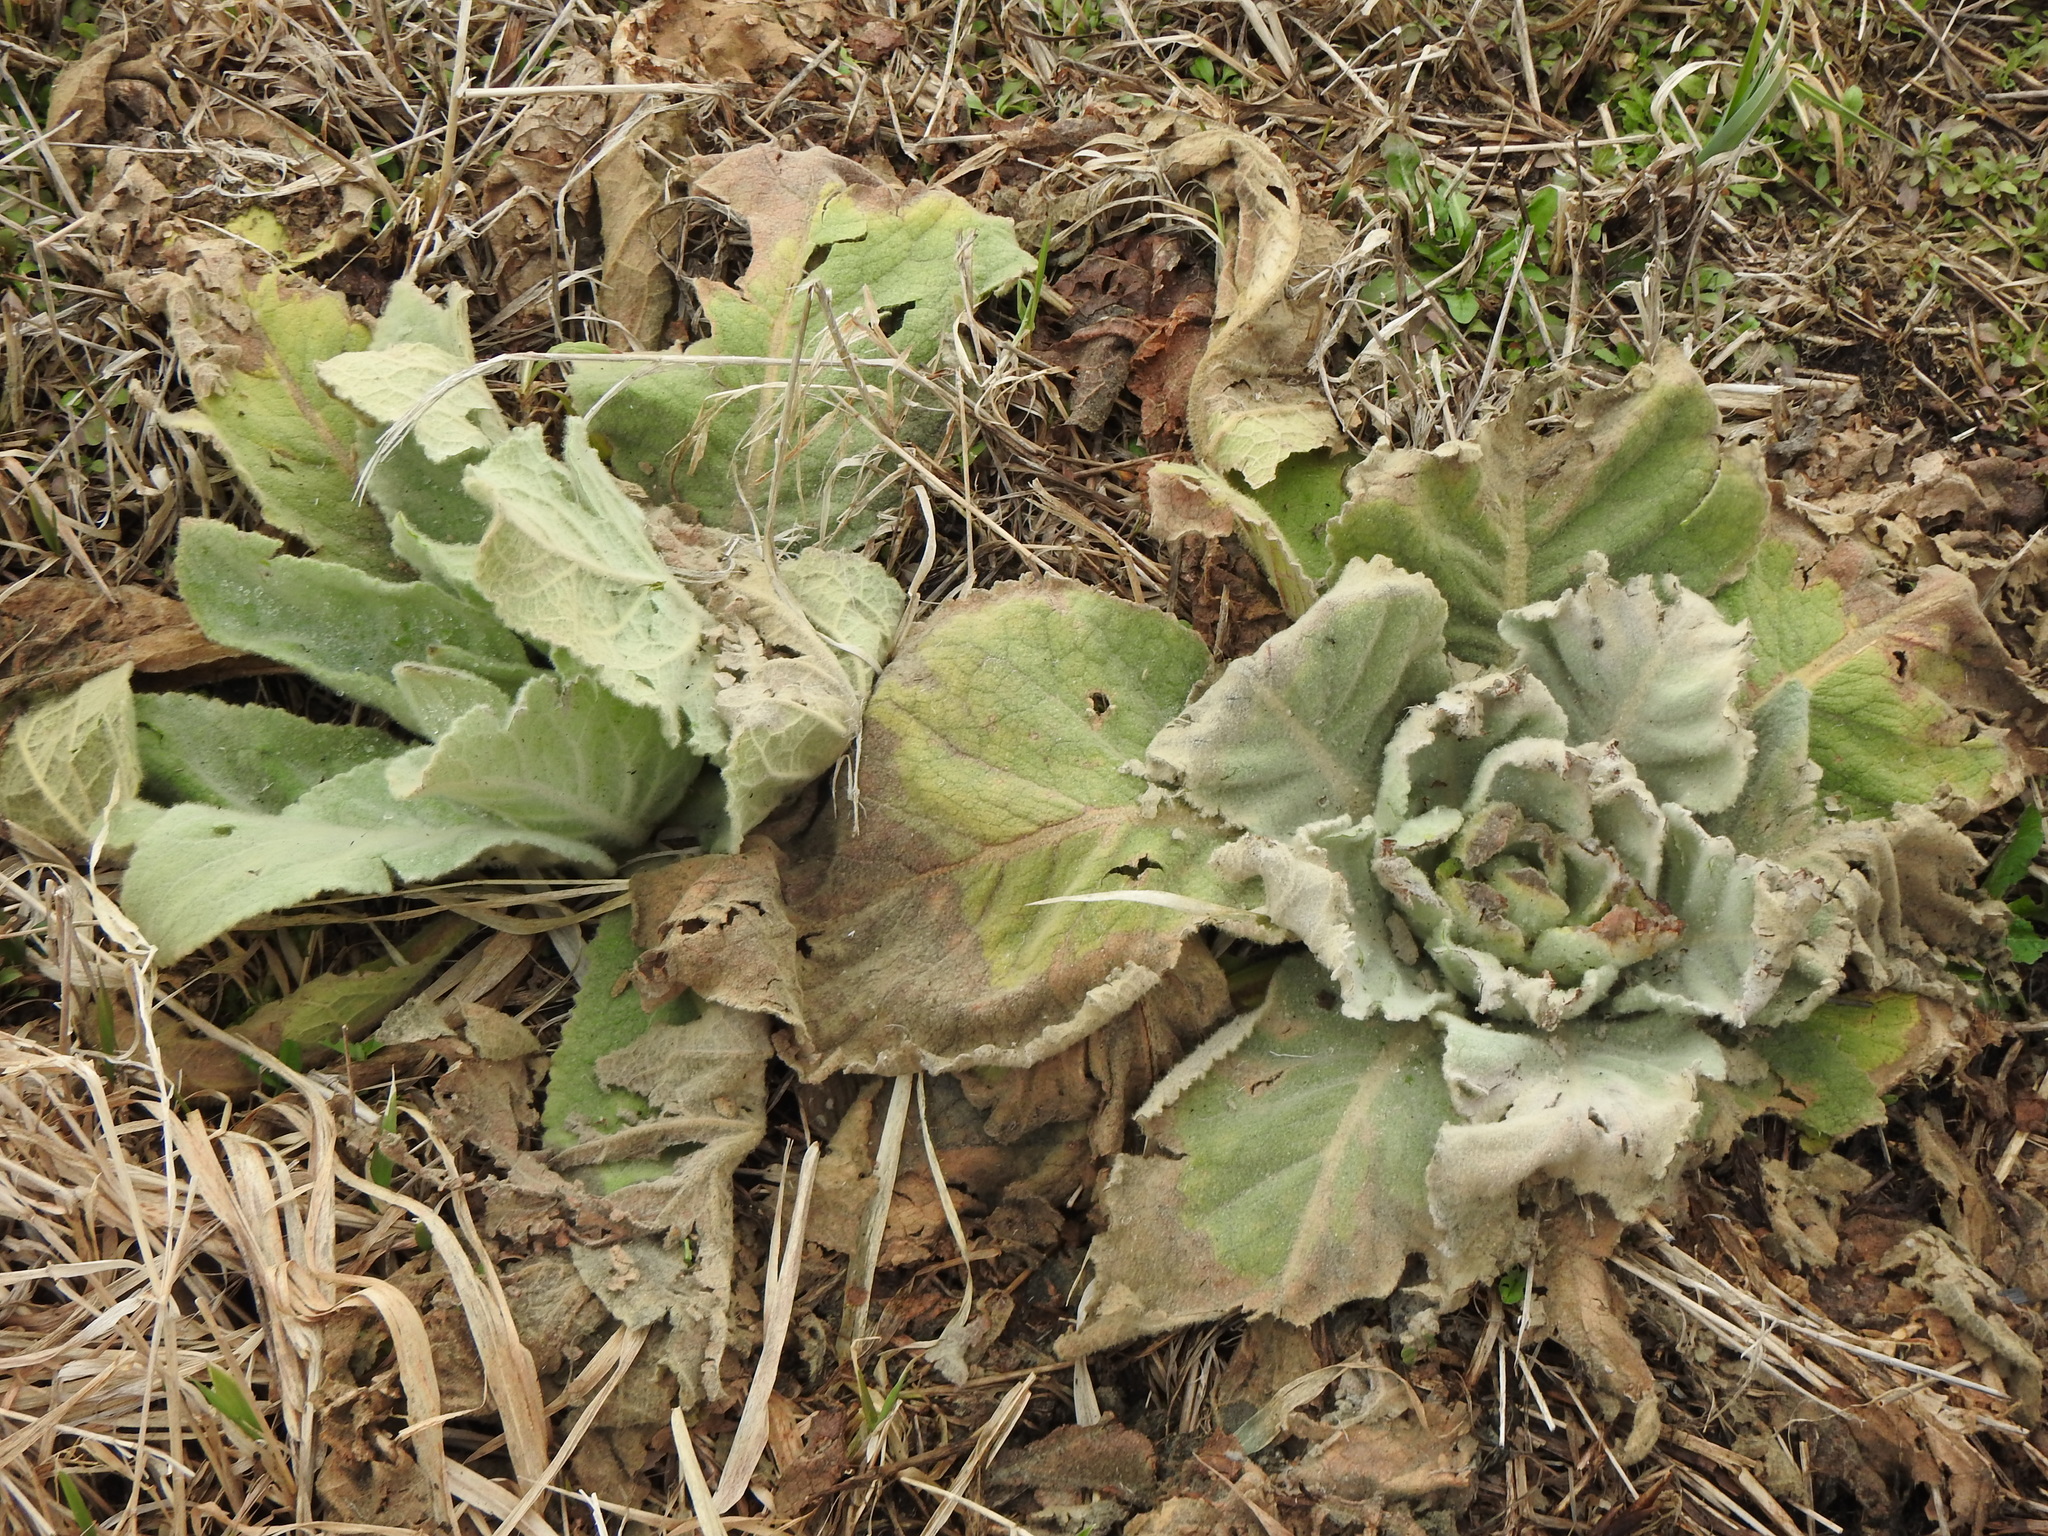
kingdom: Plantae
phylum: Tracheophyta
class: Magnoliopsida
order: Lamiales
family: Scrophulariaceae
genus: Verbascum
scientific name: Verbascum thapsus
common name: Common mullein
